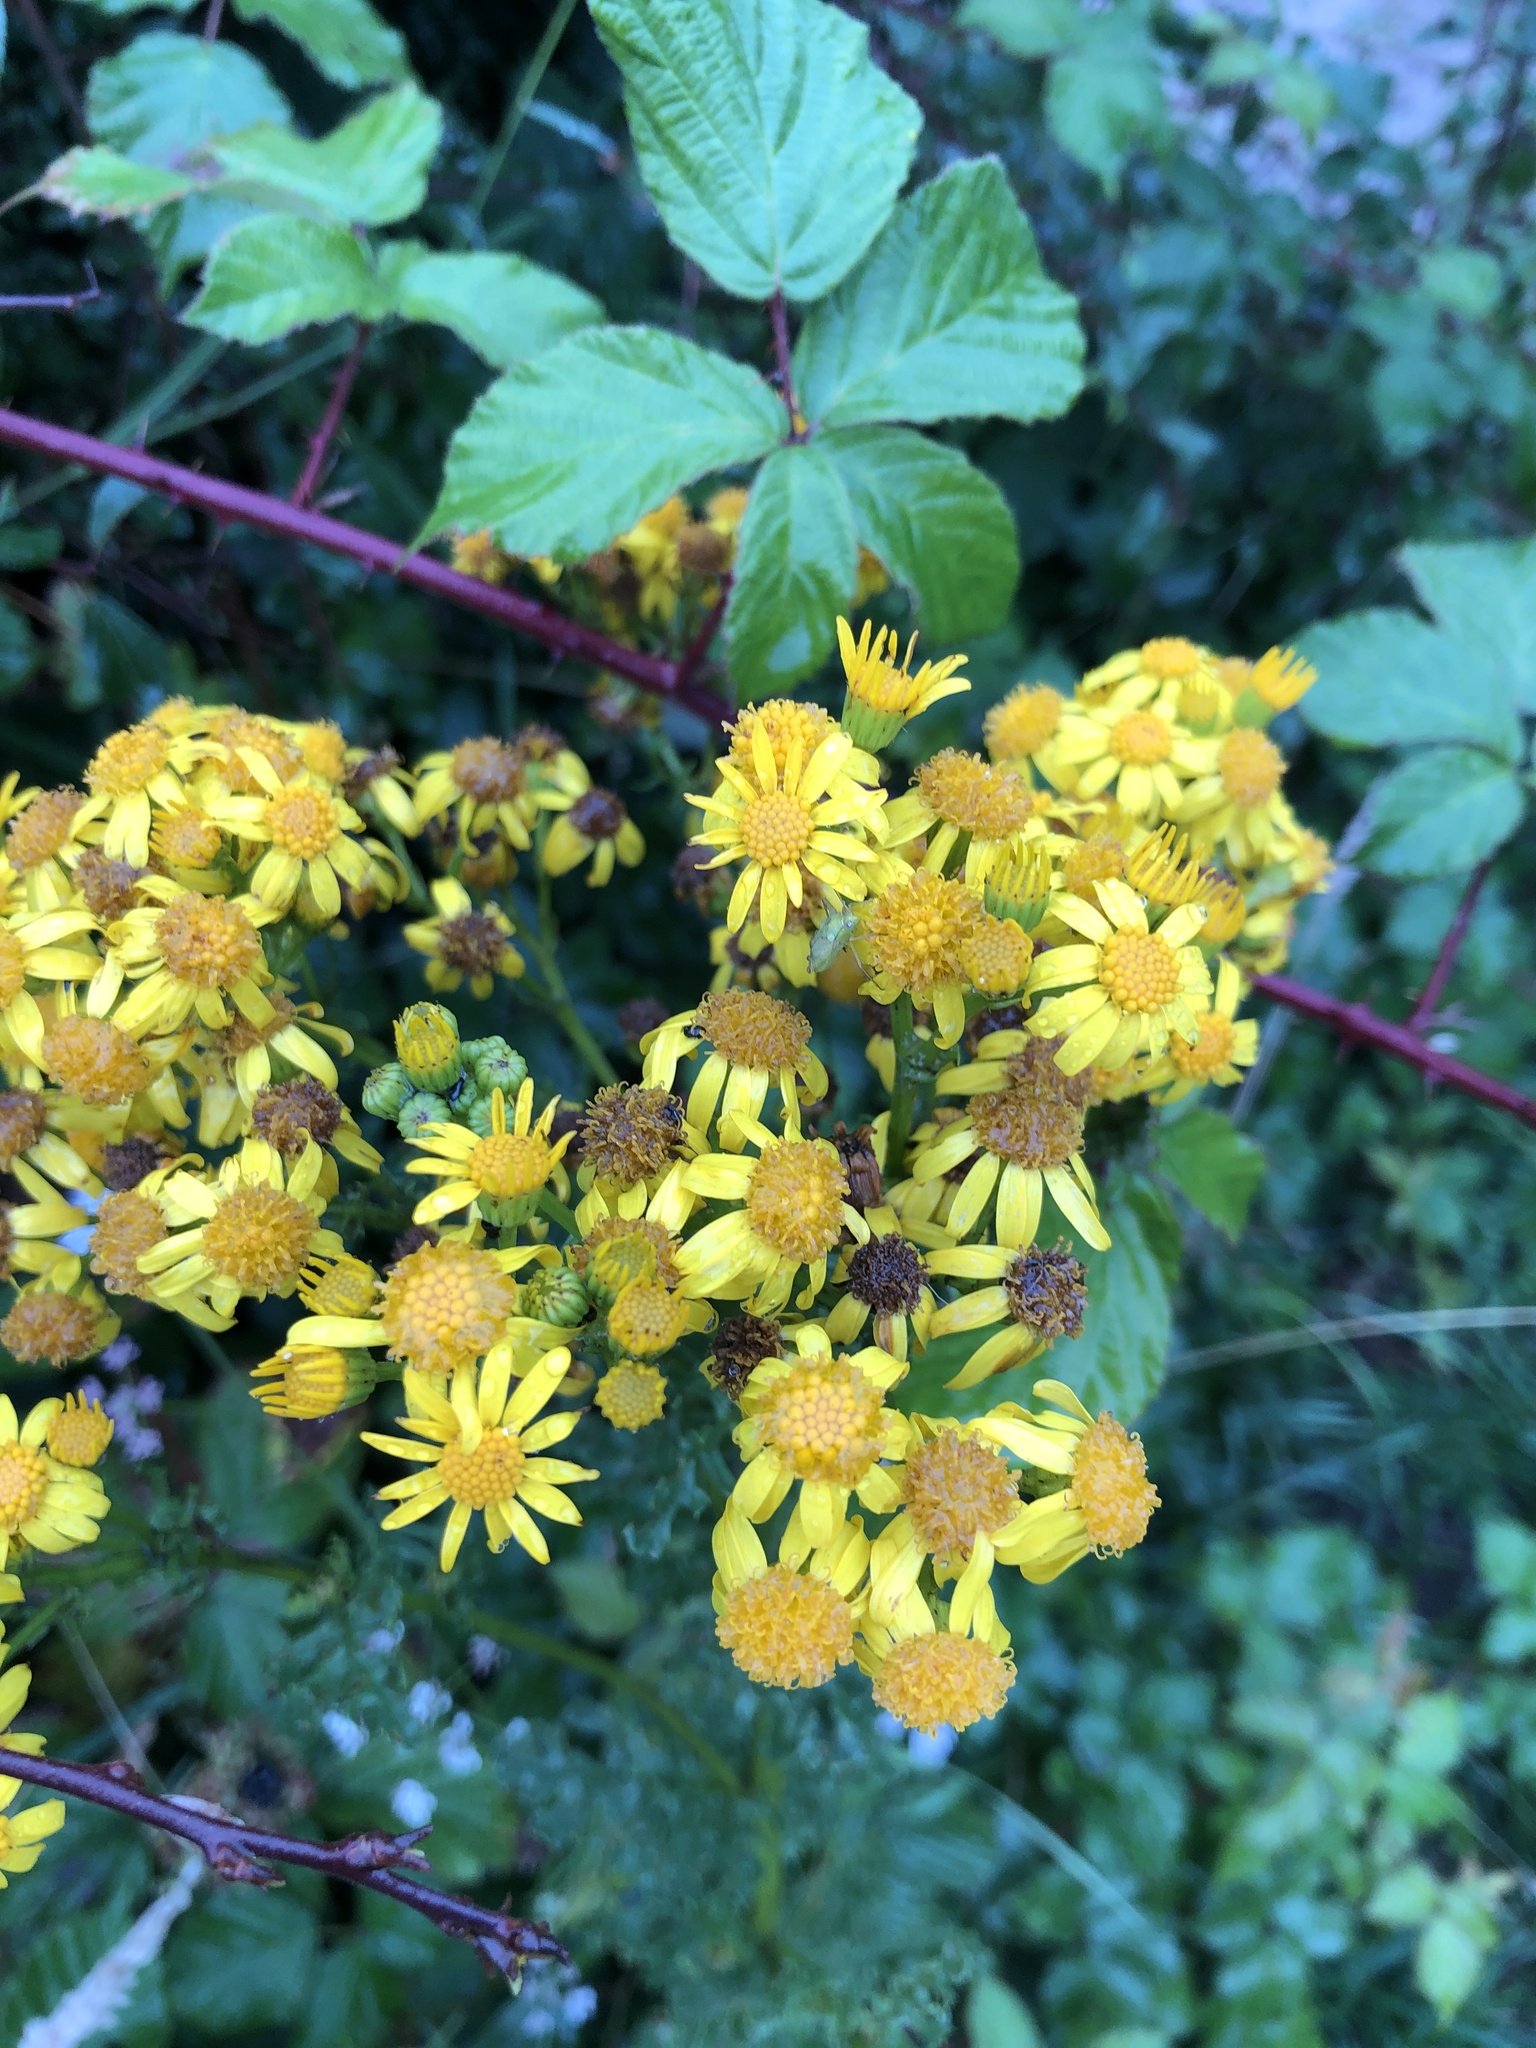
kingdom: Plantae
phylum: Tracheophyta
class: Magnoliopsida
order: Asterales
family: Asteraceae
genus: Jacobaea
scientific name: Jacobaea vulgaris
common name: Stinking willie
